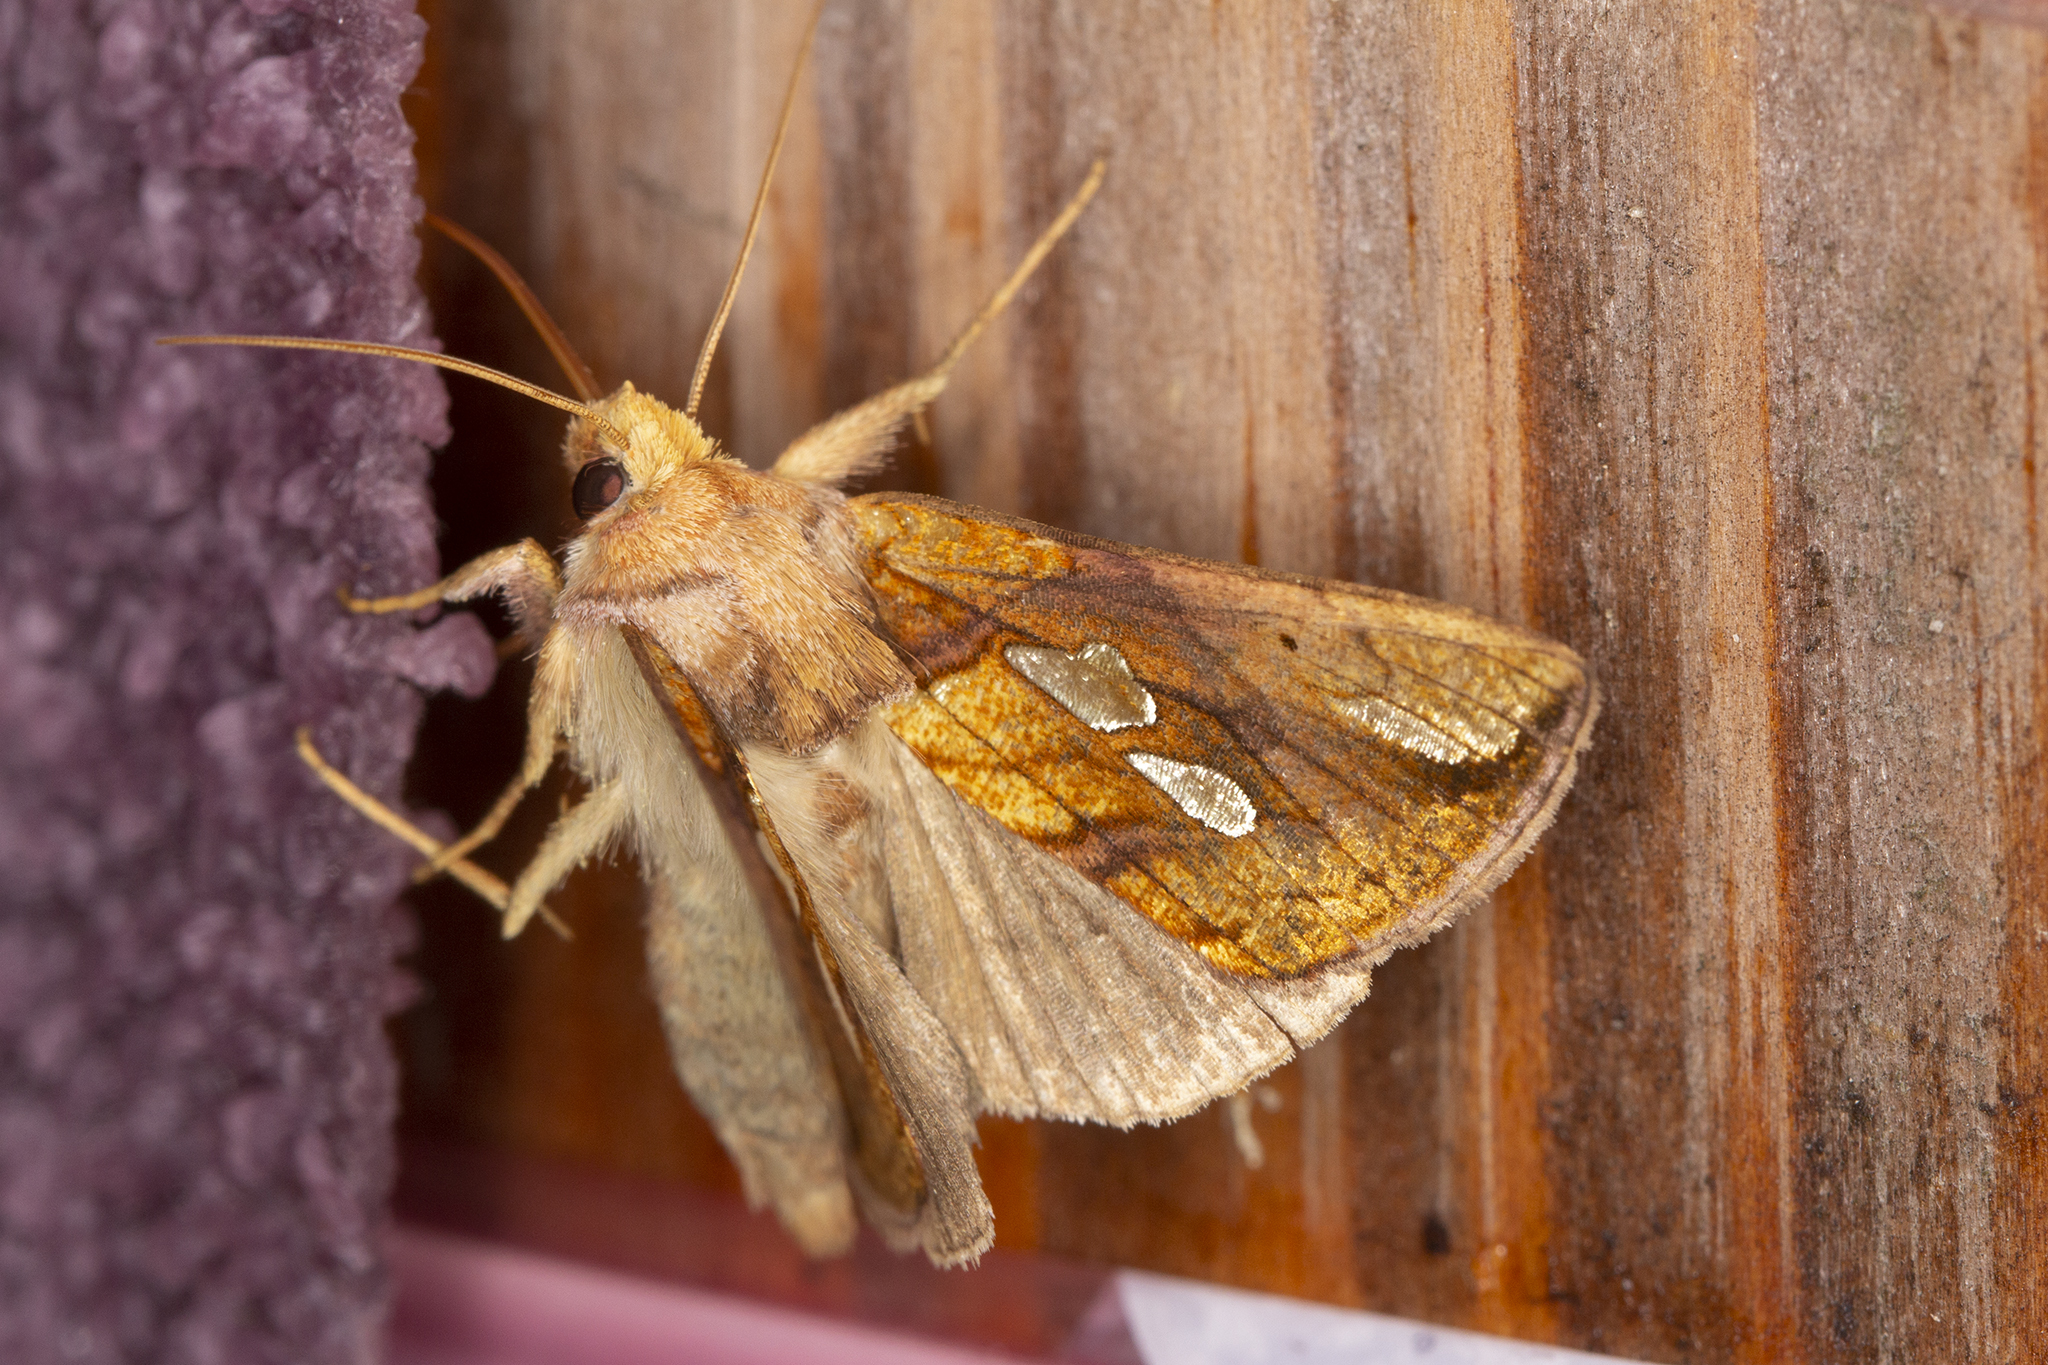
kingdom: Animalia
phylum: Arthropoda
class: Insecta
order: Lepidoptera
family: Noctuidae
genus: Plusia
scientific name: Plusia festucae
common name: Gold spot
